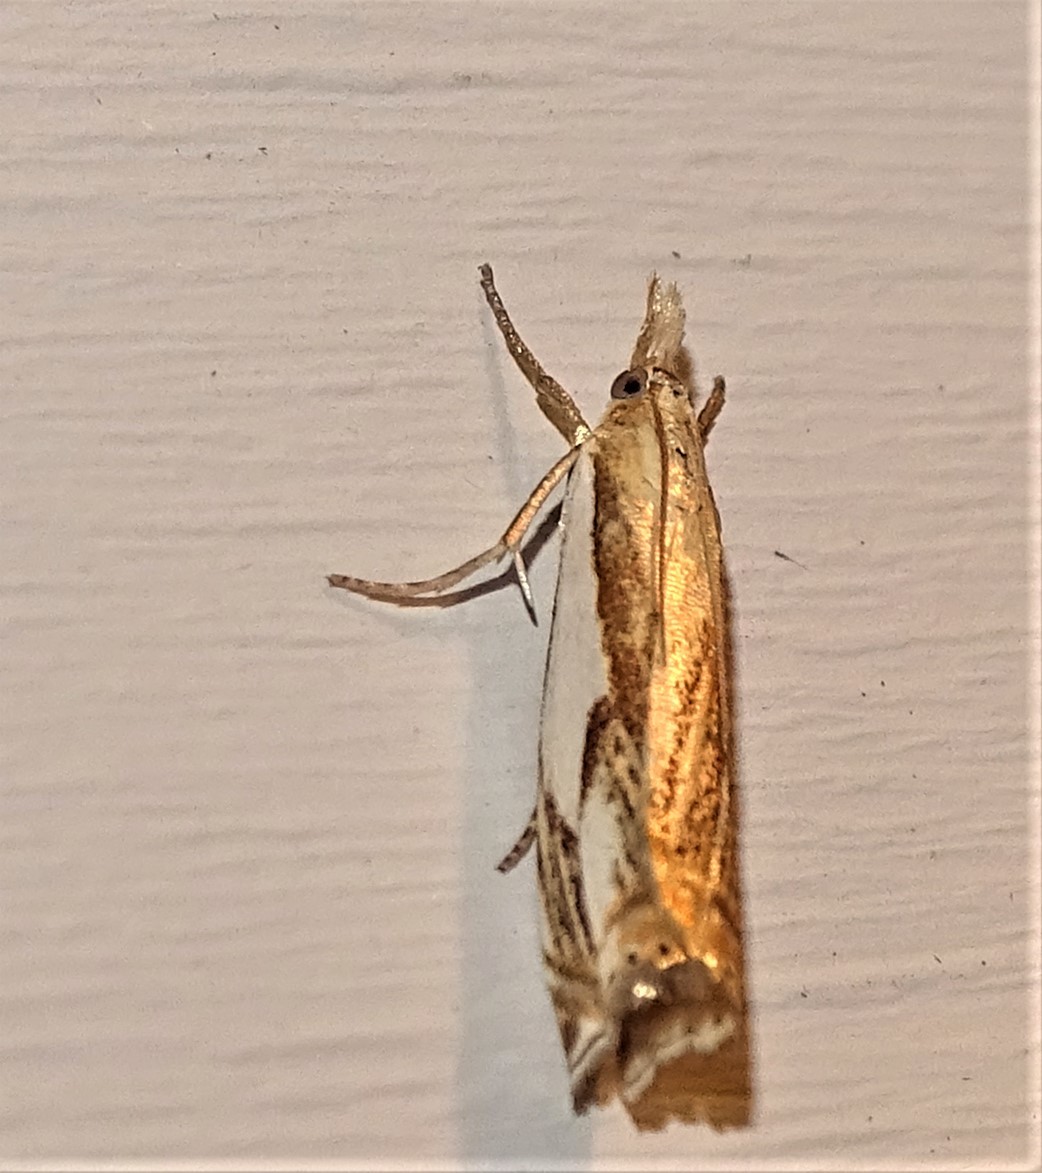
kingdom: Animalia
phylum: Arthropoda
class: Insecta
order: Lepidoptera
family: Crambidae
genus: Crambus
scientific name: Crambus agitatellus
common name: Double-banded grass-veneer
